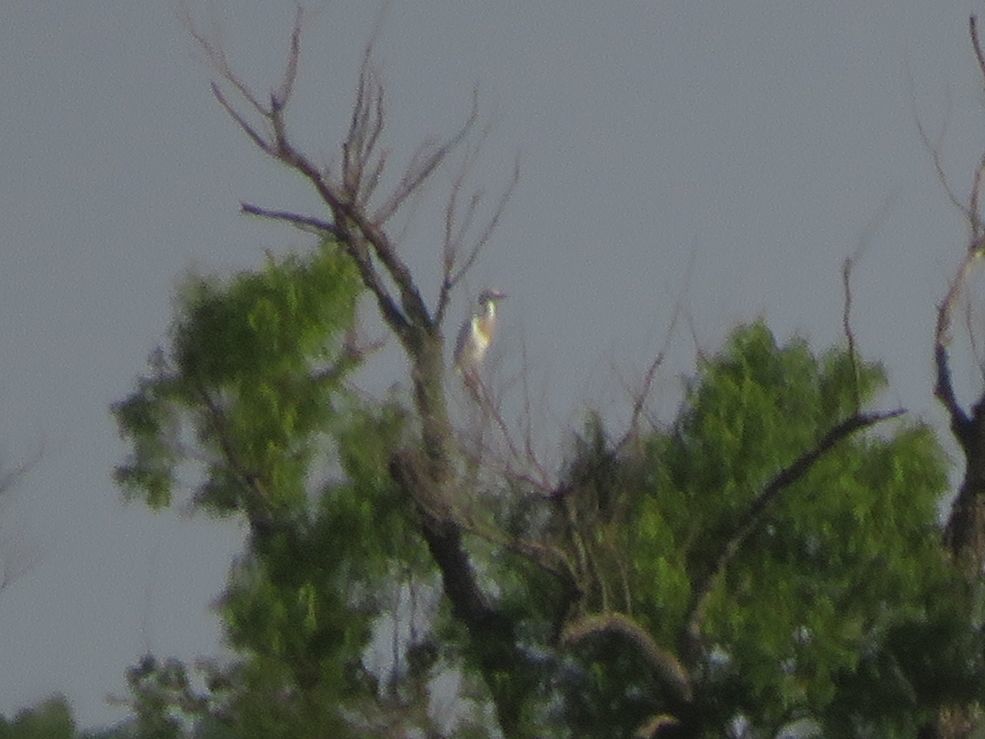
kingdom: Animalia
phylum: Chordata
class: Aves
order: Pelecaniformes
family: Ardeidae
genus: Bubulcus
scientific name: Bubulcus ibis
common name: Cattle egret
